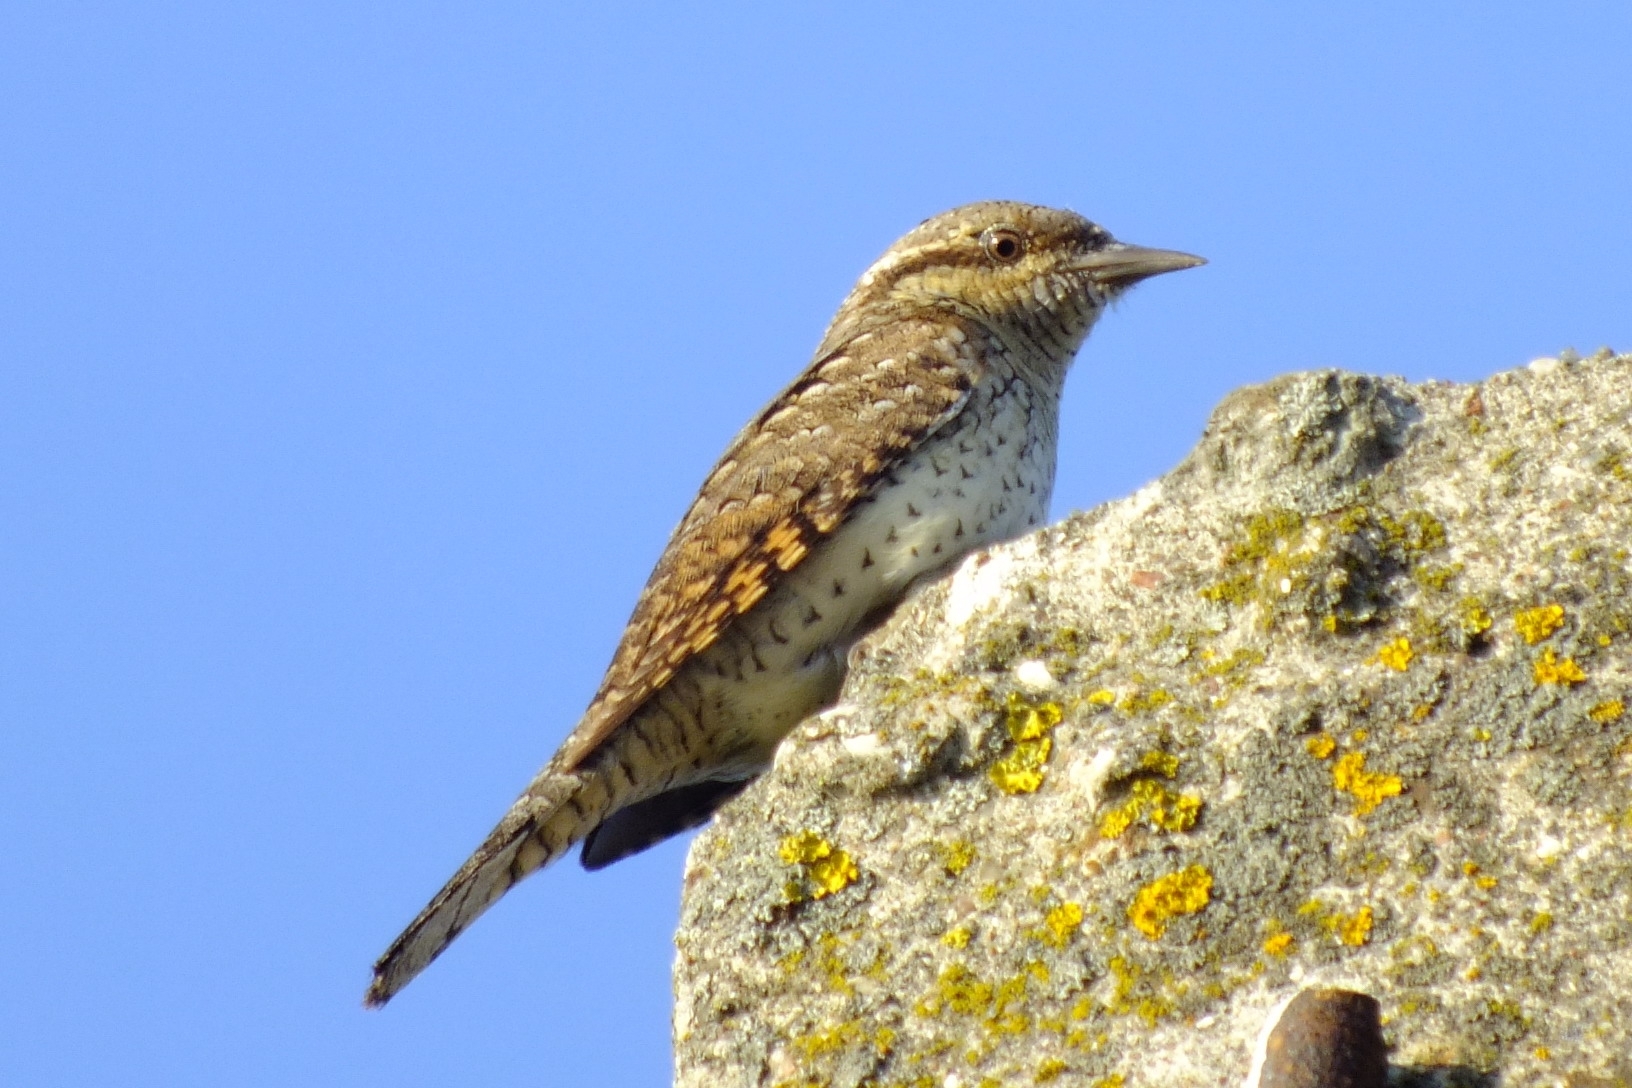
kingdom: Animalia
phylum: Chordata
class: Aves
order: Piciformes
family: Picidae
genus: Jynx
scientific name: Jynx torquilla
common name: Eurasian wryneck
